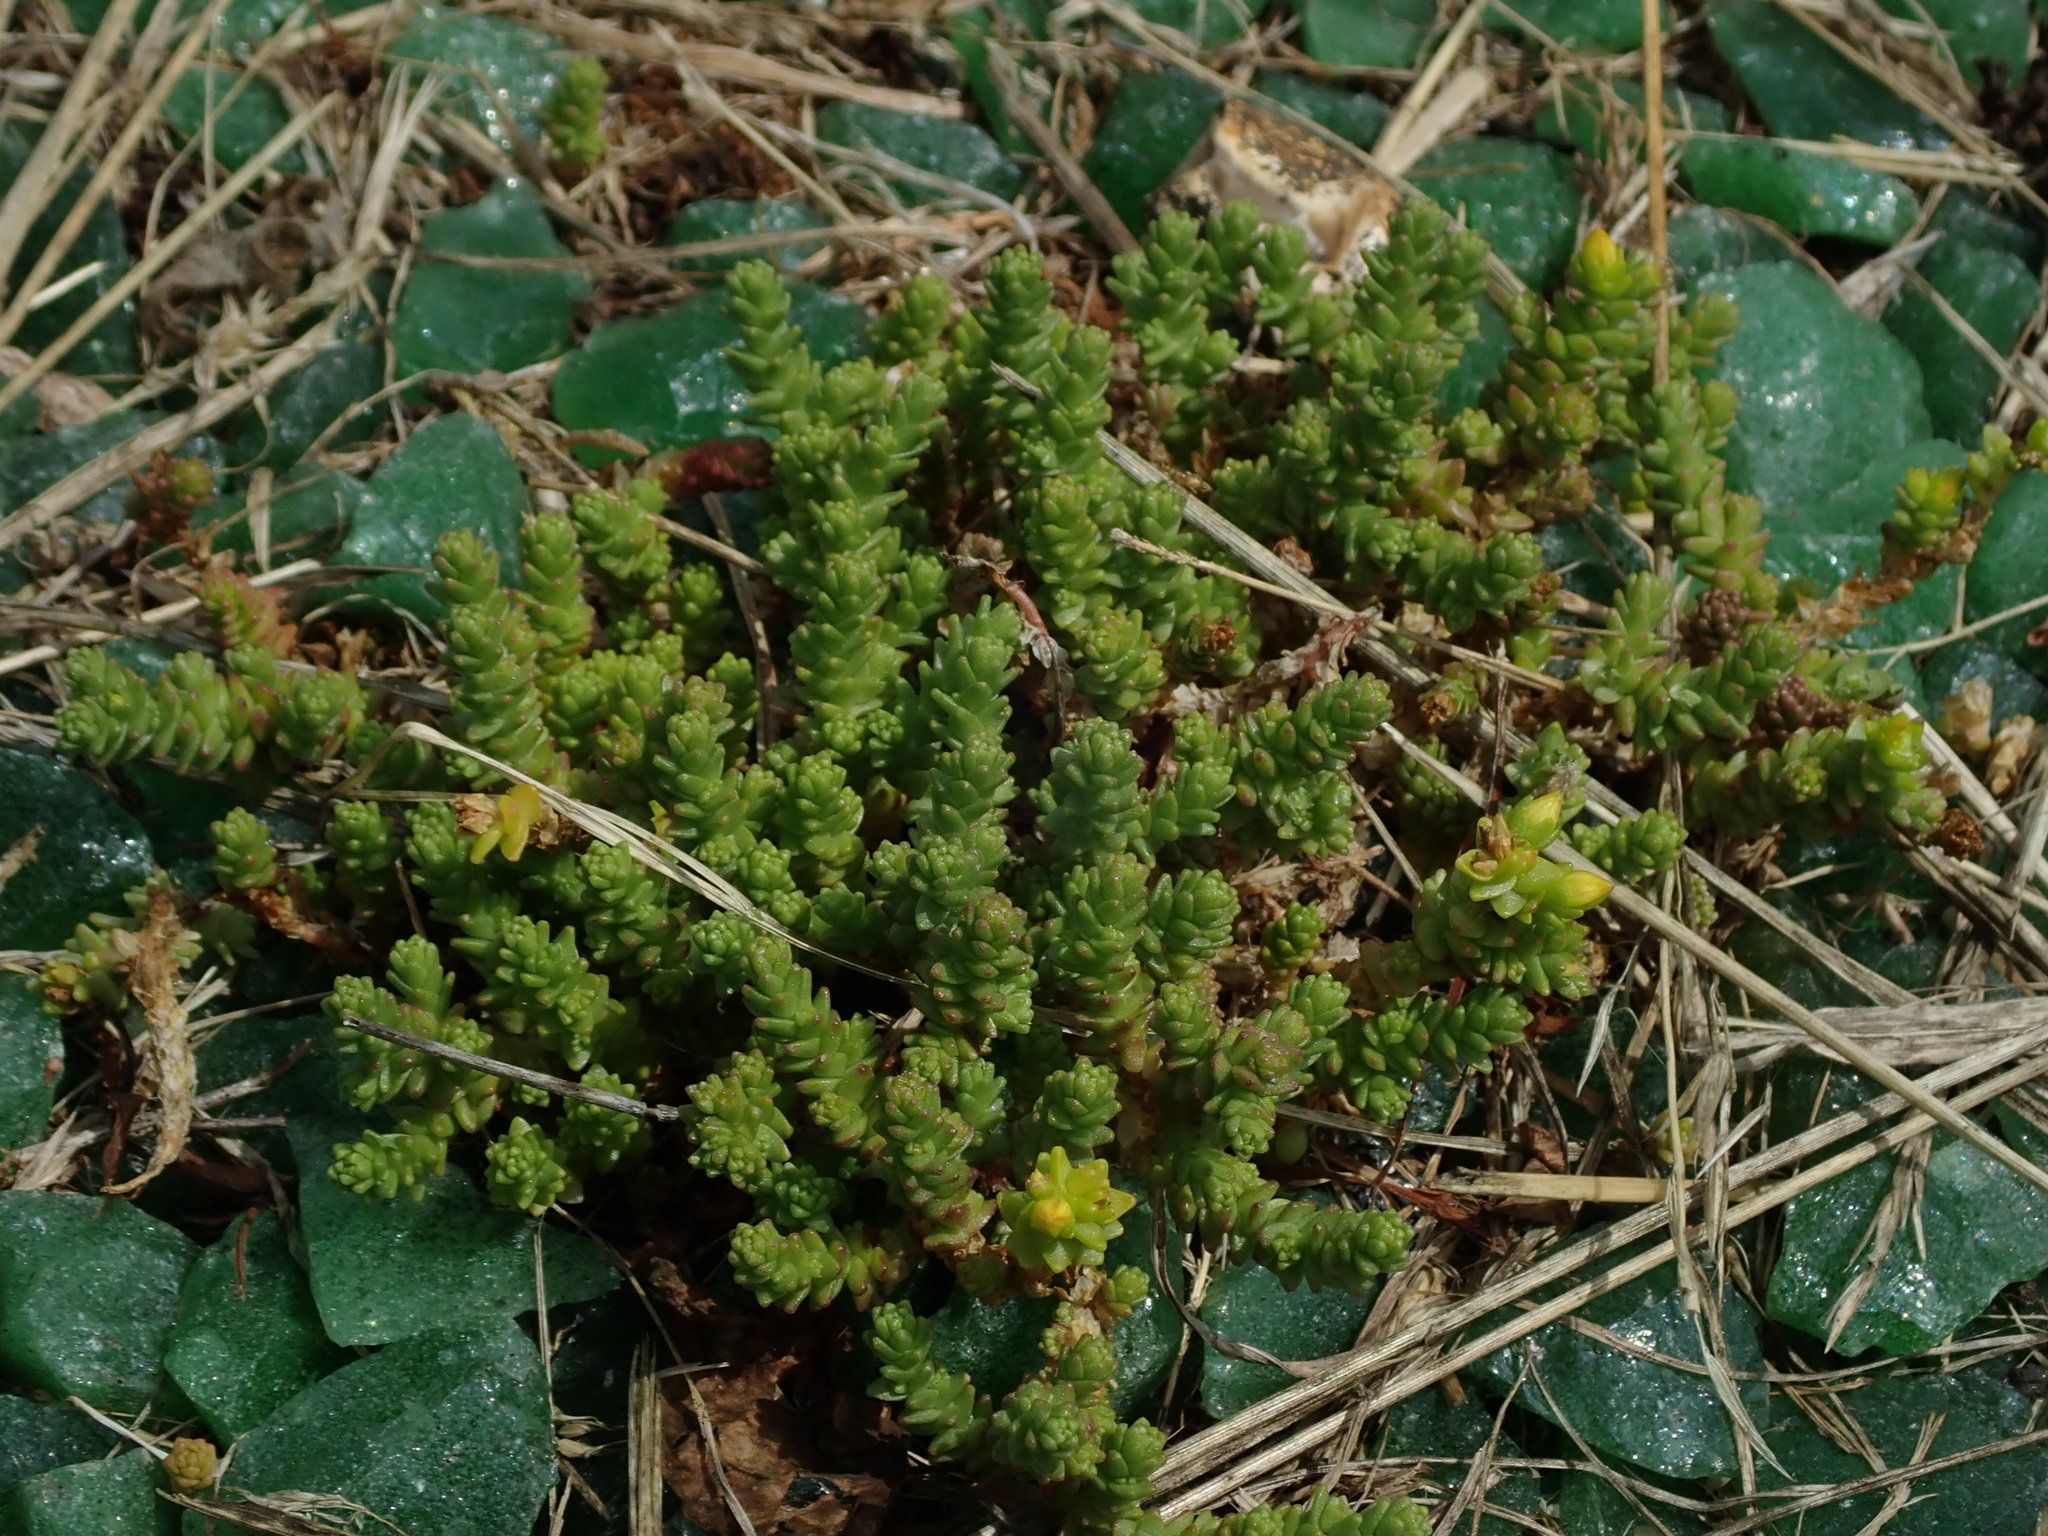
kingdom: Plantae
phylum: Tracheophyta
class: Magnoliopsida
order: Saxifragales
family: Crassulaceae
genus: Sedum
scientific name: Sedum acre
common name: Biting stonecrop
